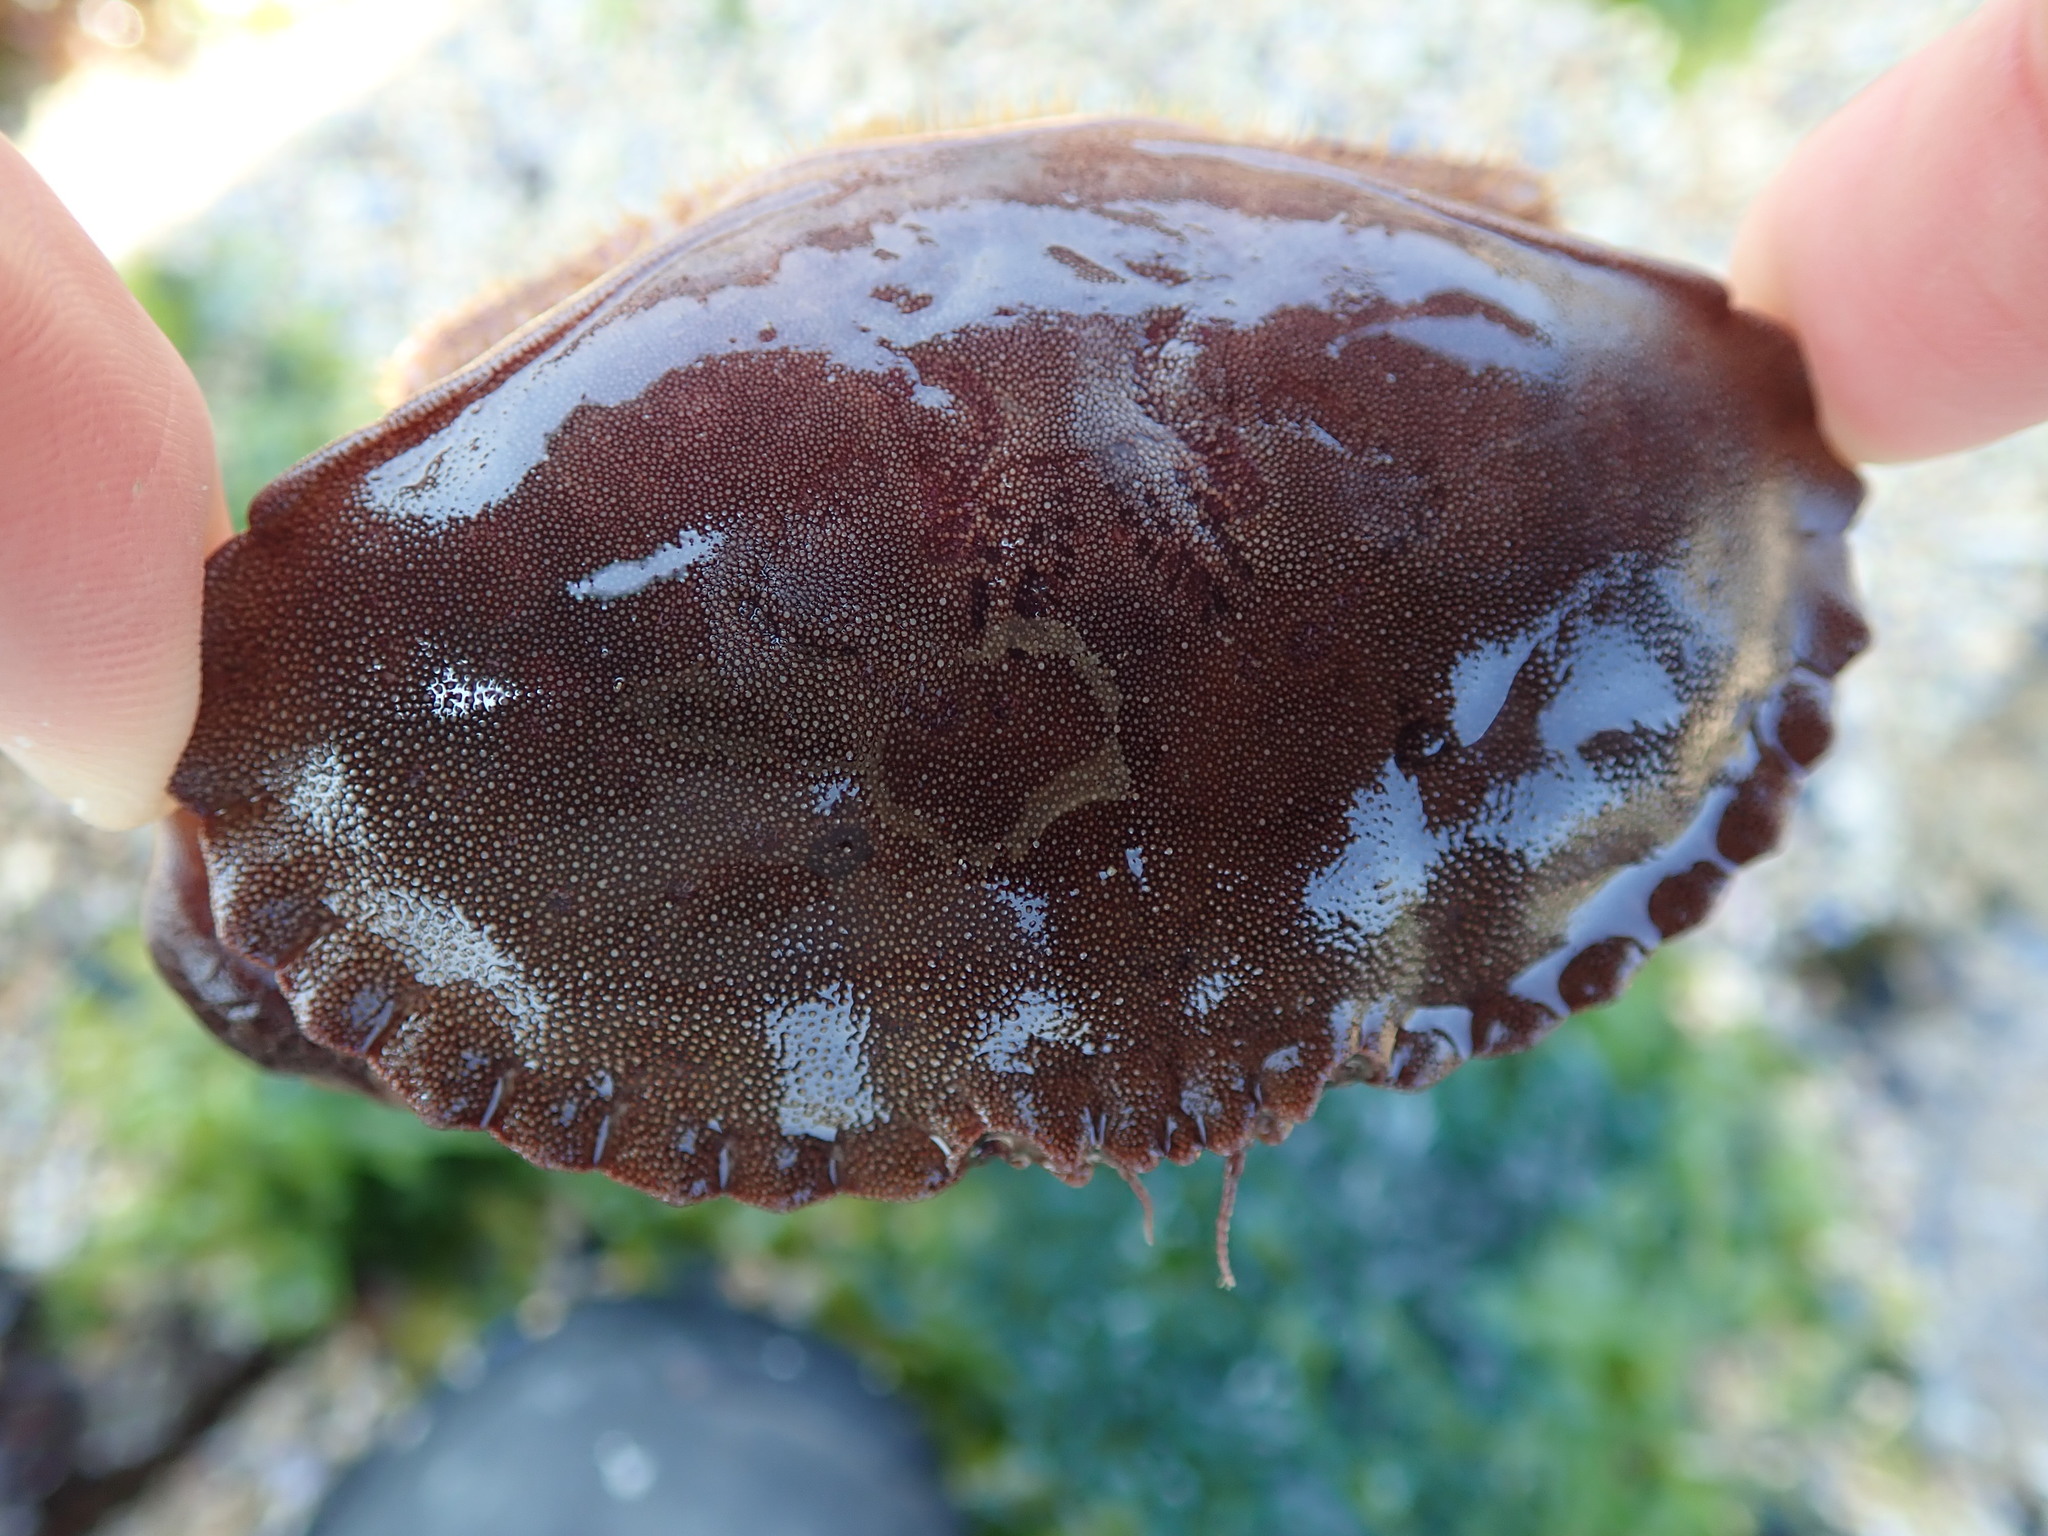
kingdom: Animalia
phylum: Arthropoda
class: Malacostraca
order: Decapoda
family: Cancridae
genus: Cancer
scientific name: Cancer pagurus
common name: Edible crab
